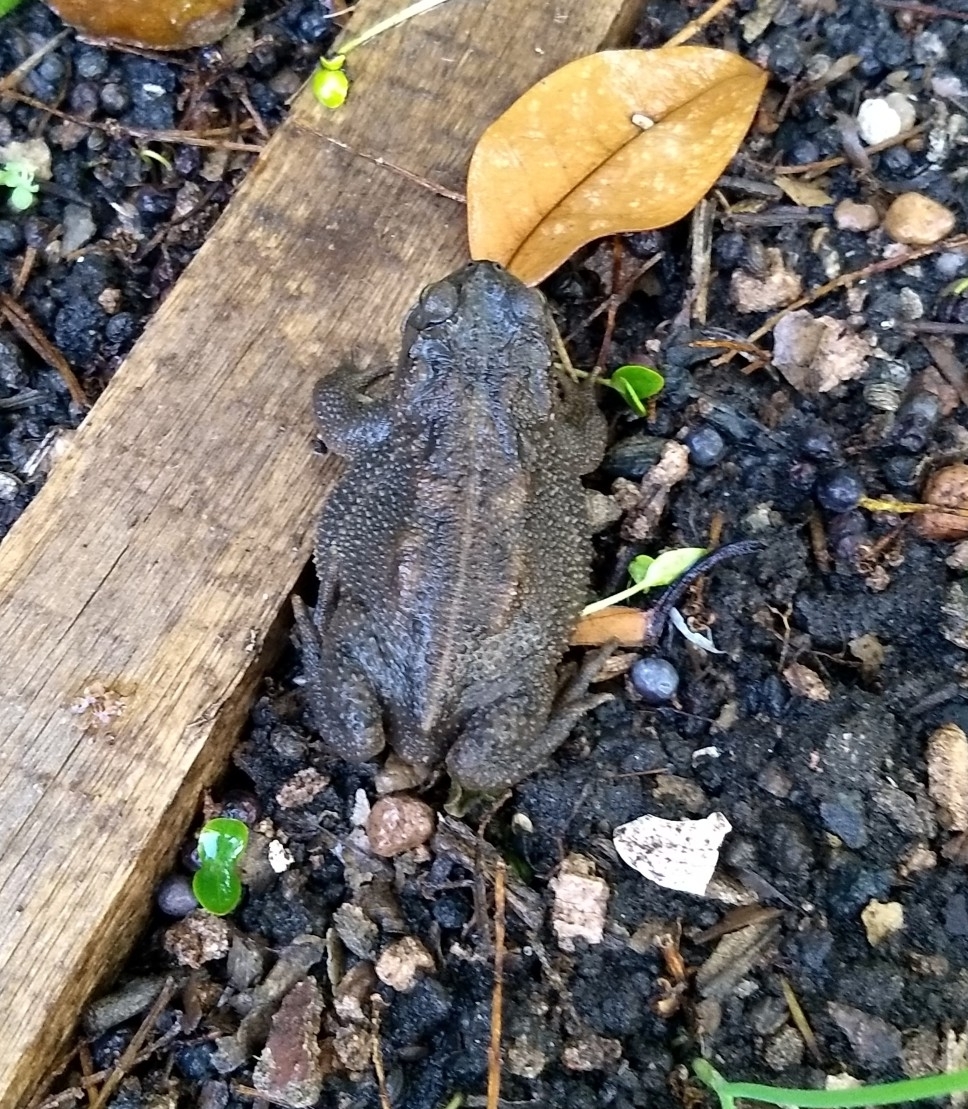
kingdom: Animalia
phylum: Chordata
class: Amphibia
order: Anura
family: Bufonidae
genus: Rhinella
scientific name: Rhinella dorbignyi
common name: D´orbigny’s toad
